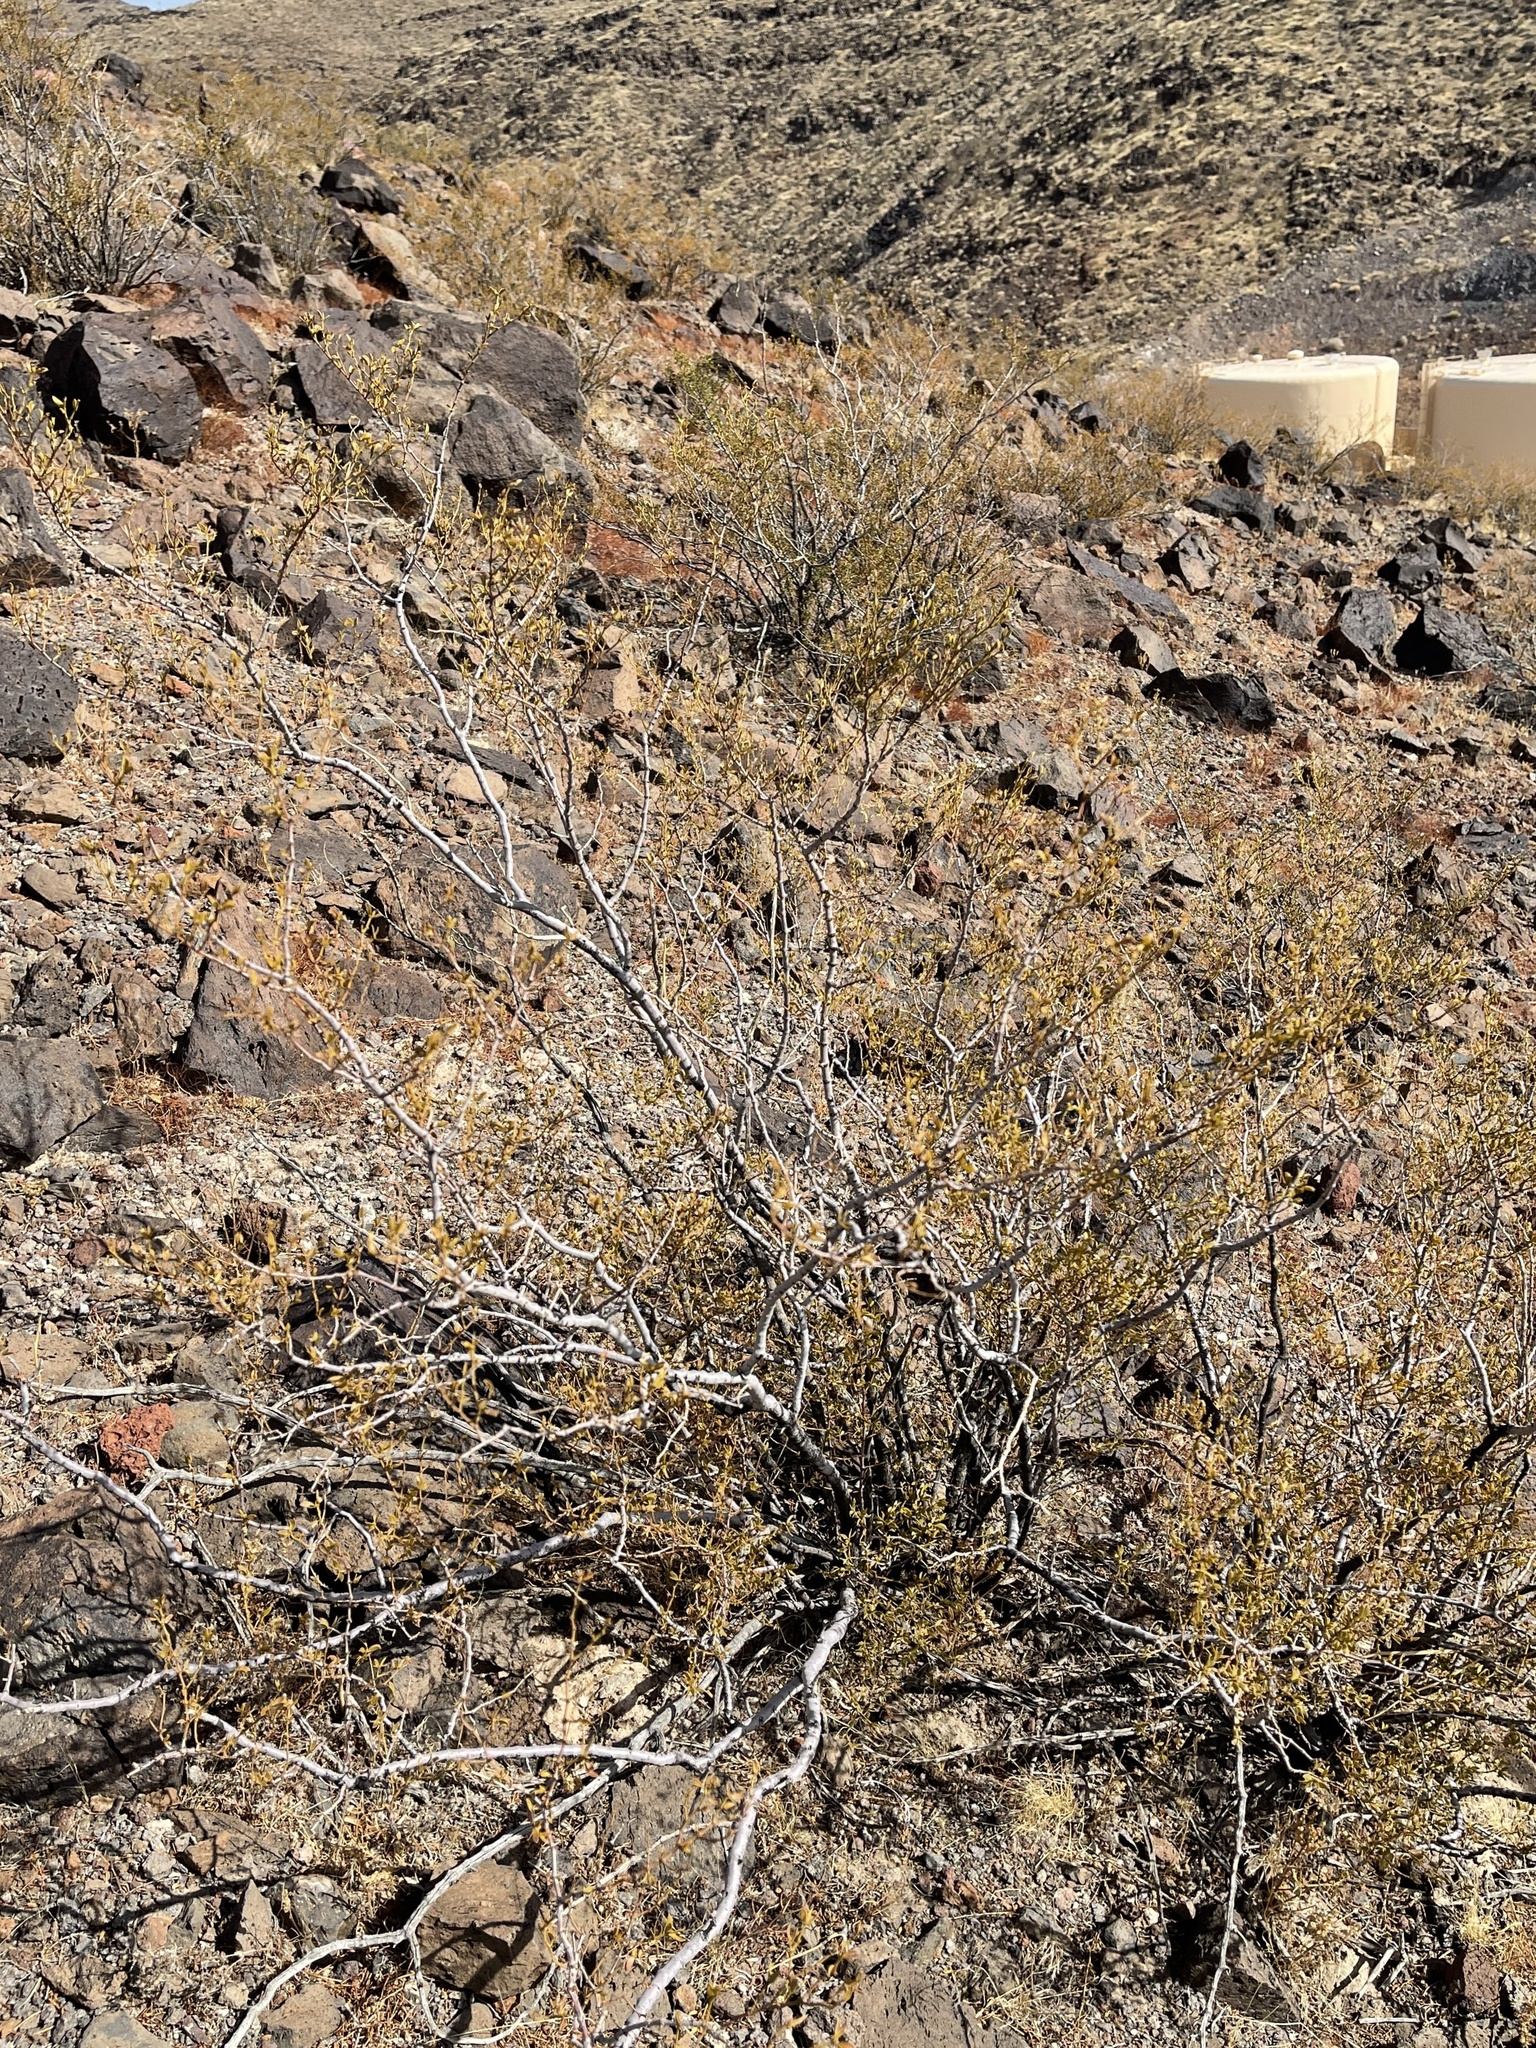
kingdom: Plantae
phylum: Tracheophyta
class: Magnoliopsida
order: Zygophyllales
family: Zygophyllaceae
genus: Larrea
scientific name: Larrea tridentata
